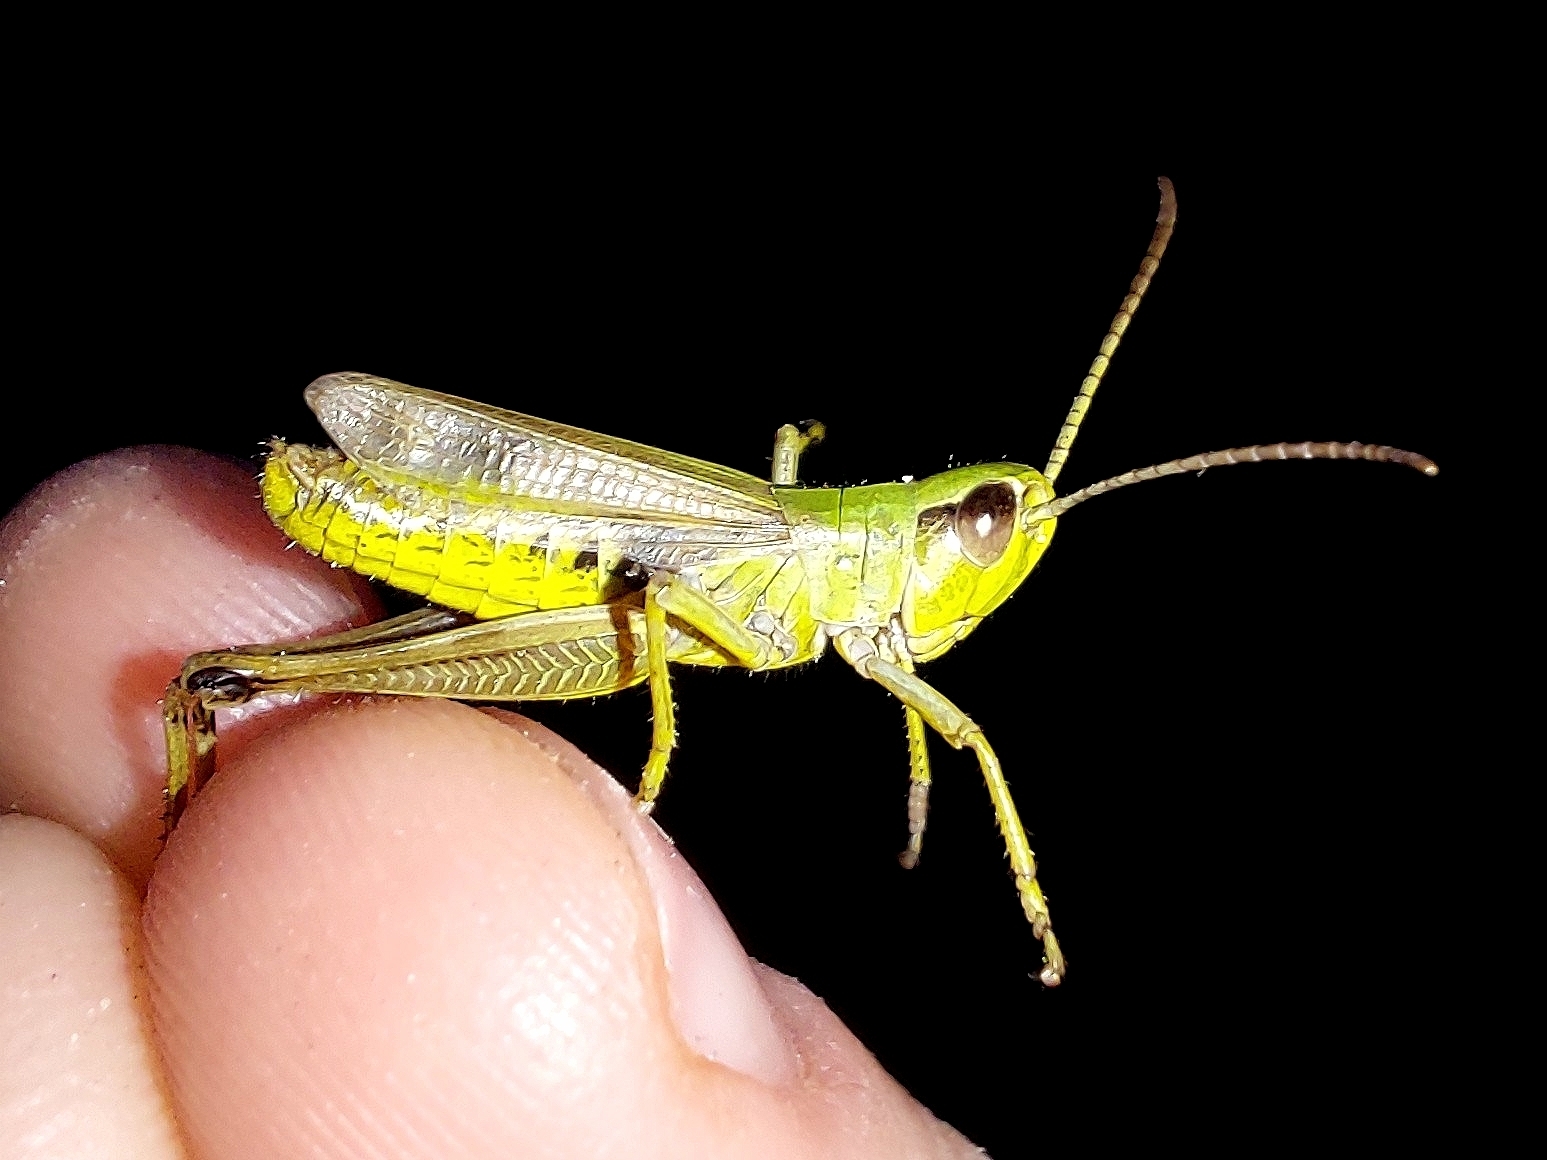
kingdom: Animalia
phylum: Arthropoda
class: Insecta
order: Orthoptera
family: Acrididae
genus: Pseudochorthippus
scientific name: Pseudochorthippus parallelus
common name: Meadow grasshopper
